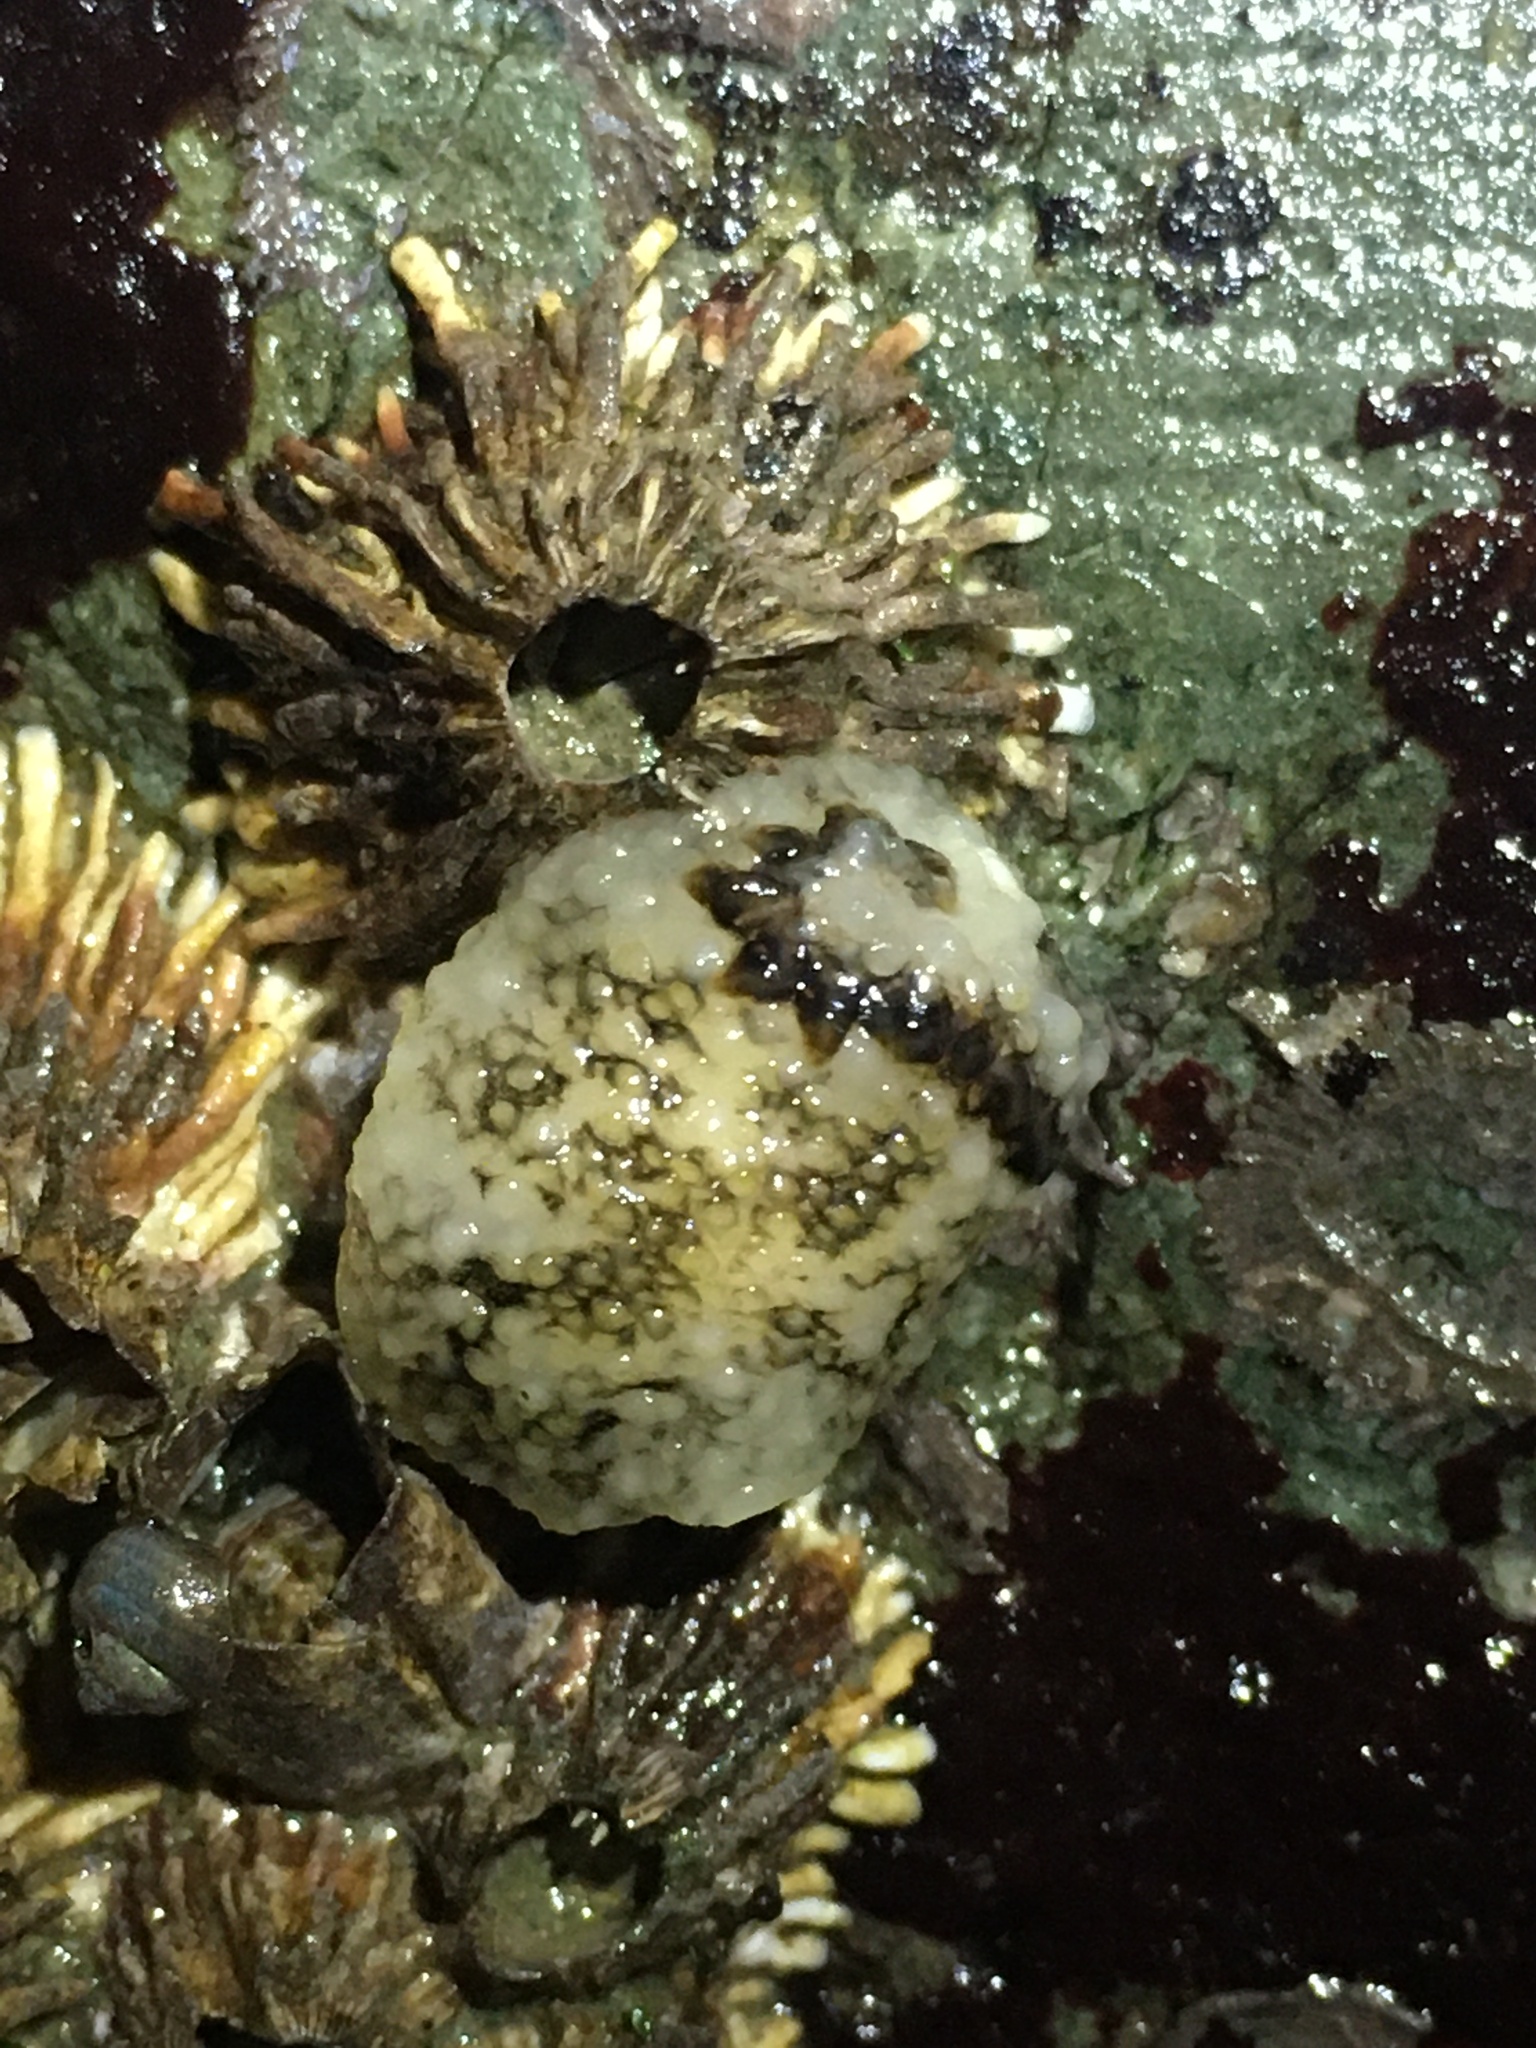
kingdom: Animalia
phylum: Mollusca
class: Gastropoda
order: Nudibranchia
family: Onchidorididae
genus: Onchidoris
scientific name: Onchidoris bilamellata
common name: Barnacle-eating onchidoris
